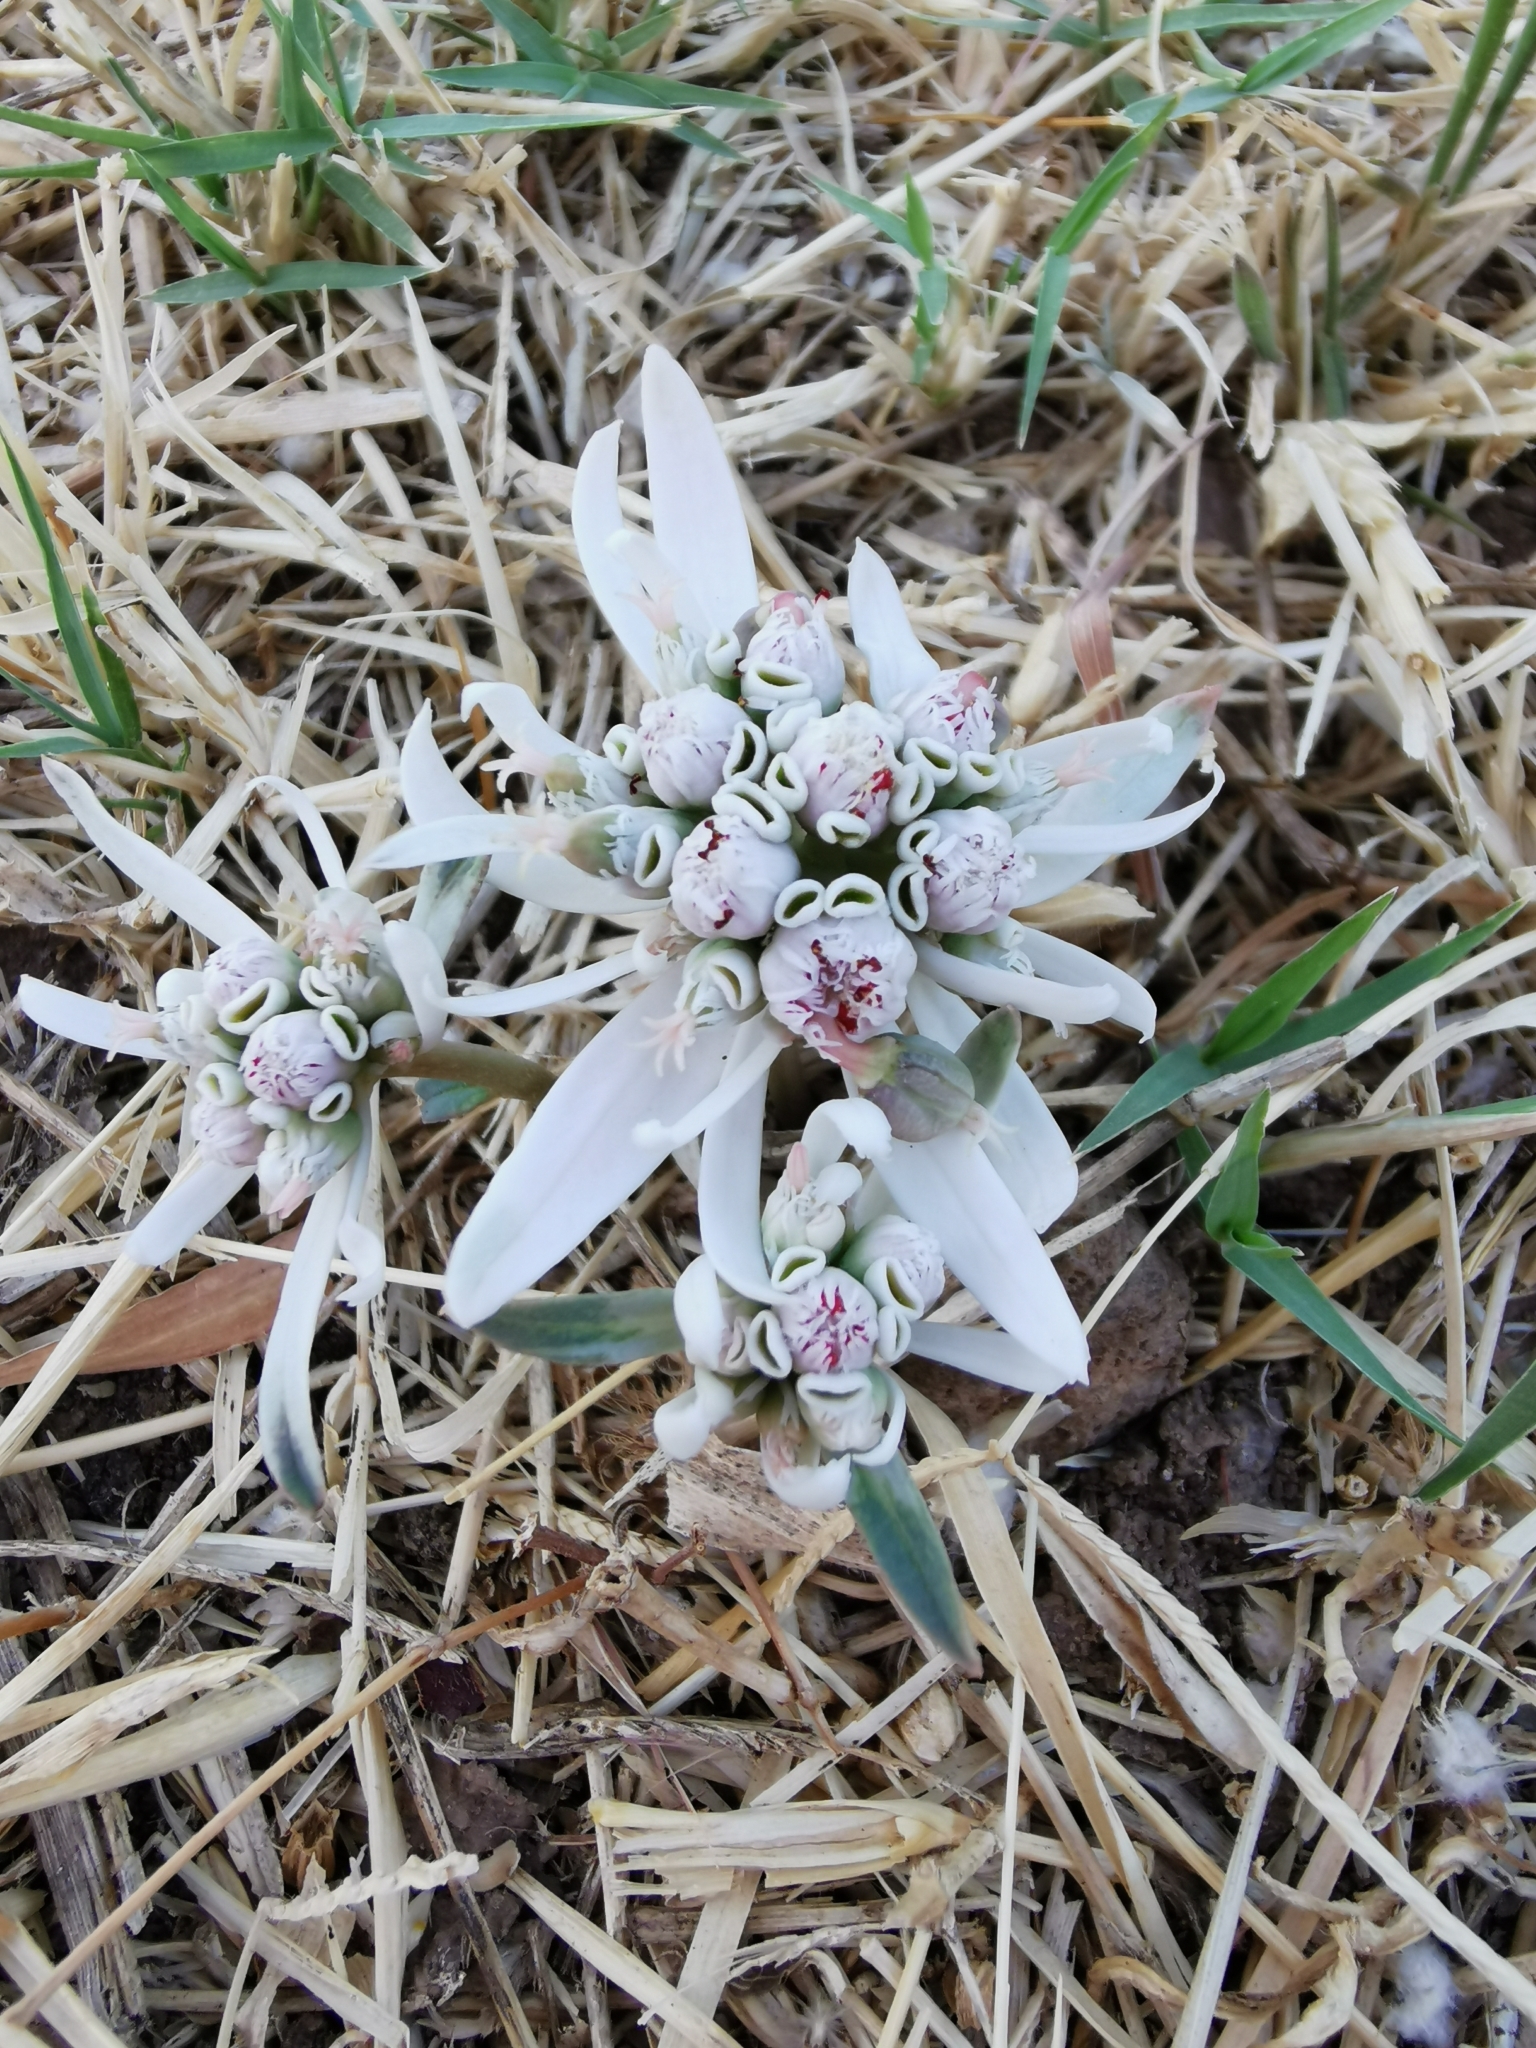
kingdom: Plantae
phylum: Tracheophyta
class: Magnoliopsida
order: Malpighiales
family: Euphorbiaceae
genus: Euphorbia
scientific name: Euphorbia radians
